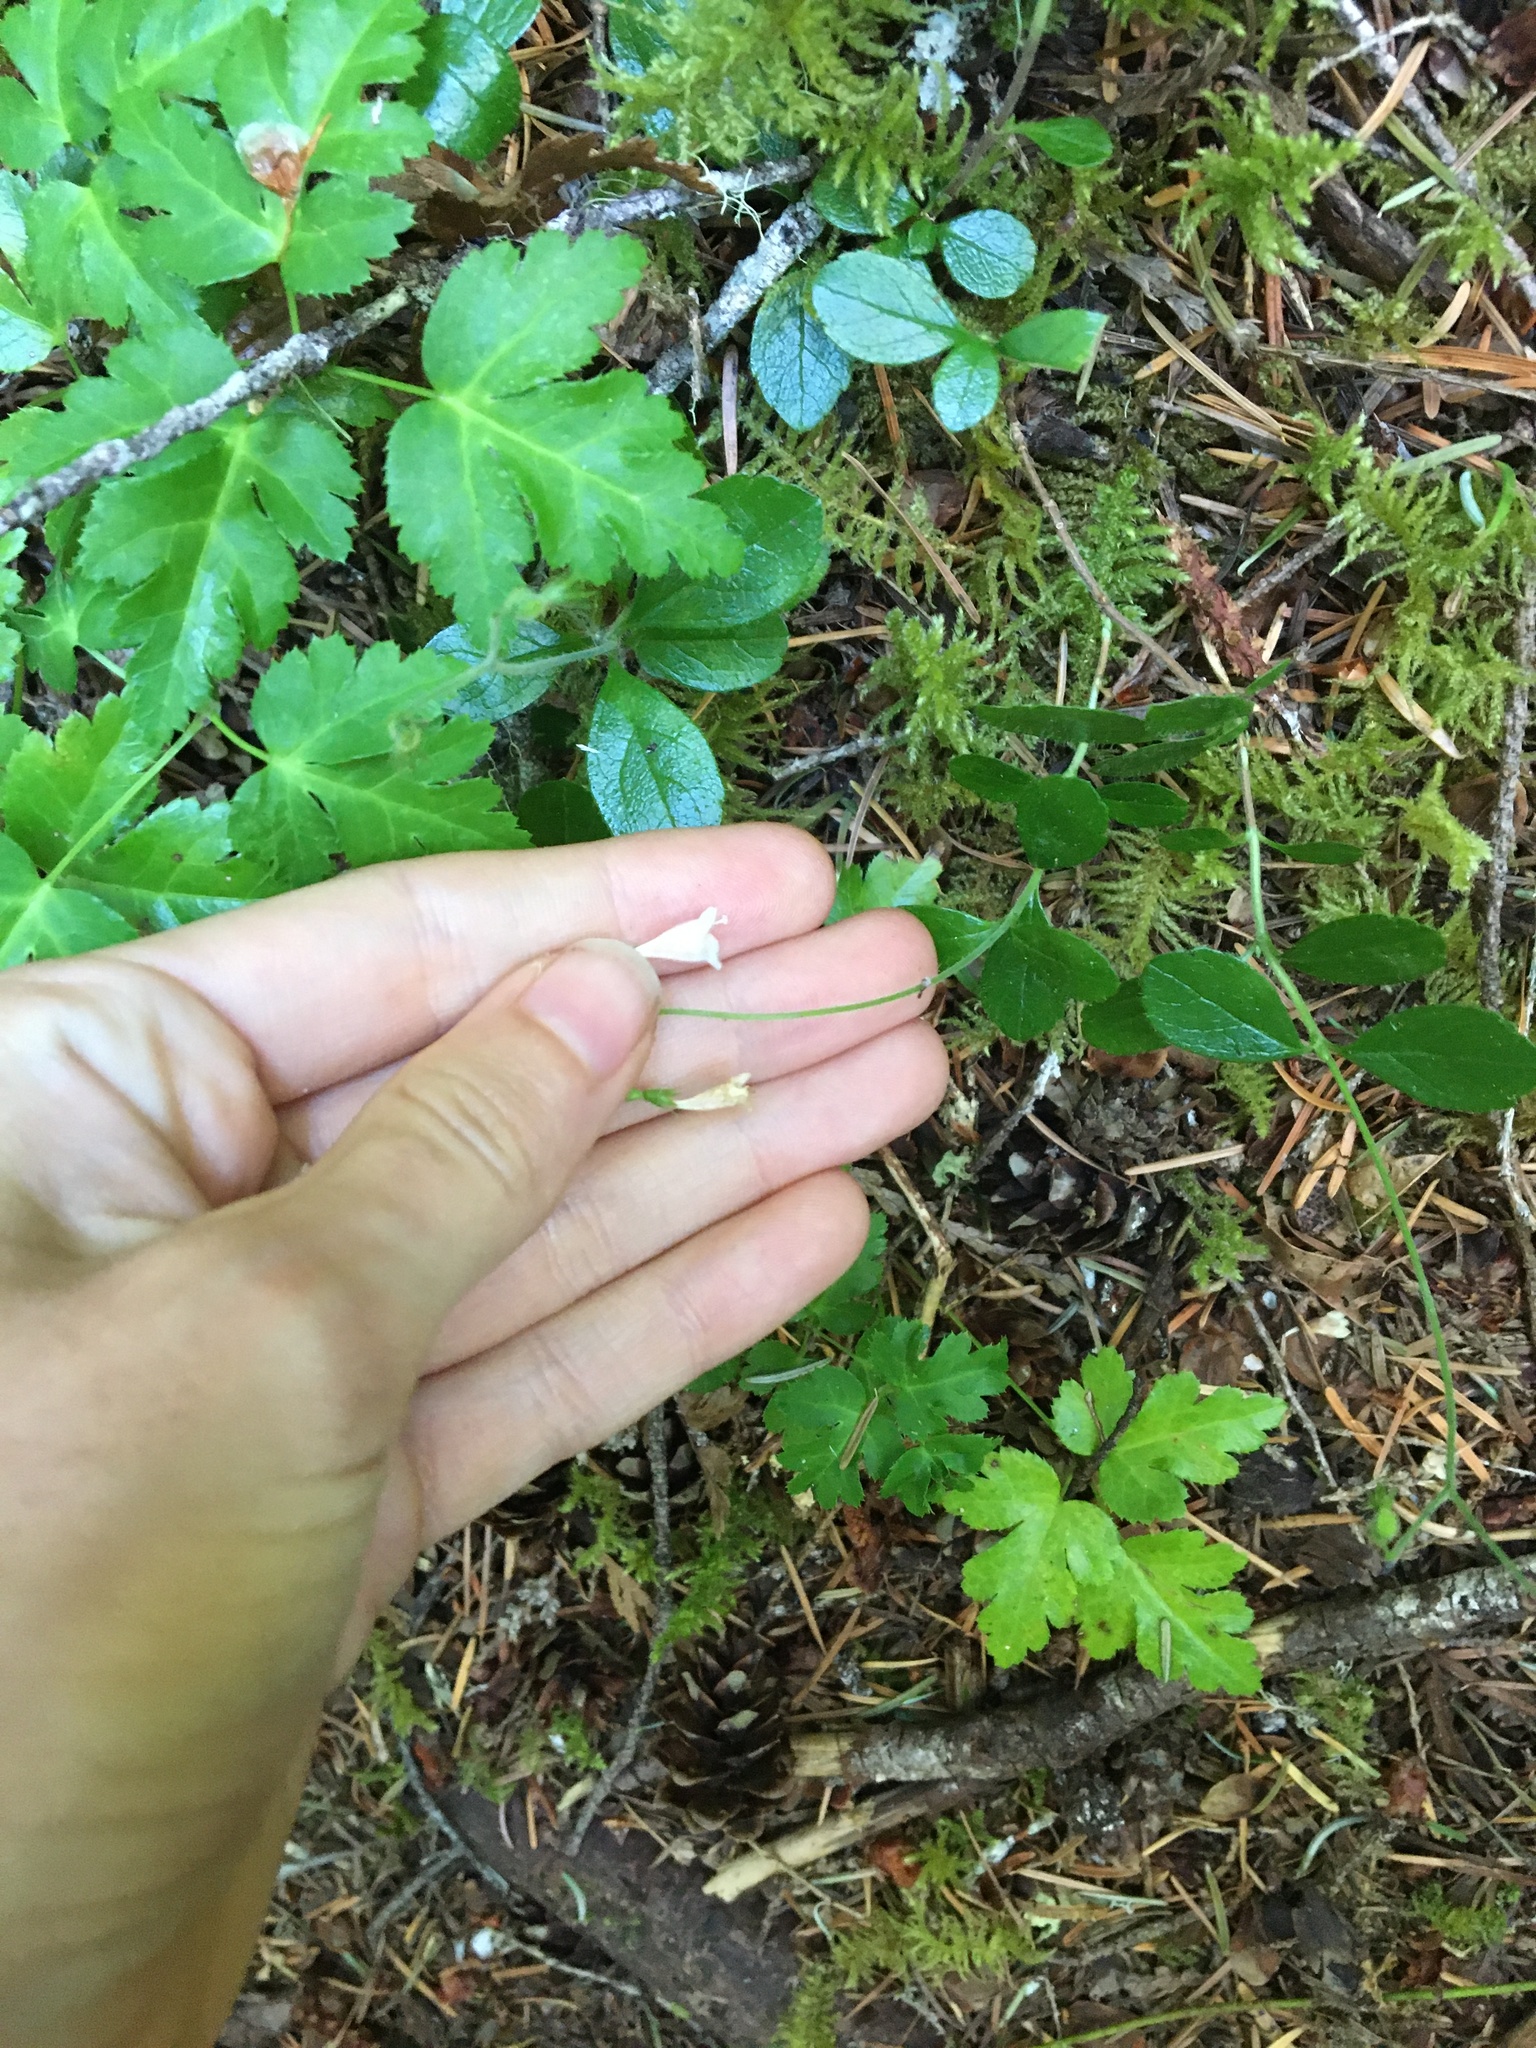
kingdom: Plantae
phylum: Tracheophyta
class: Magnoliopsida
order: Dipsacales
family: Caprifoliaceae
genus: Linnaea
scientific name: Linnaea borealis
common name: Twinflower
